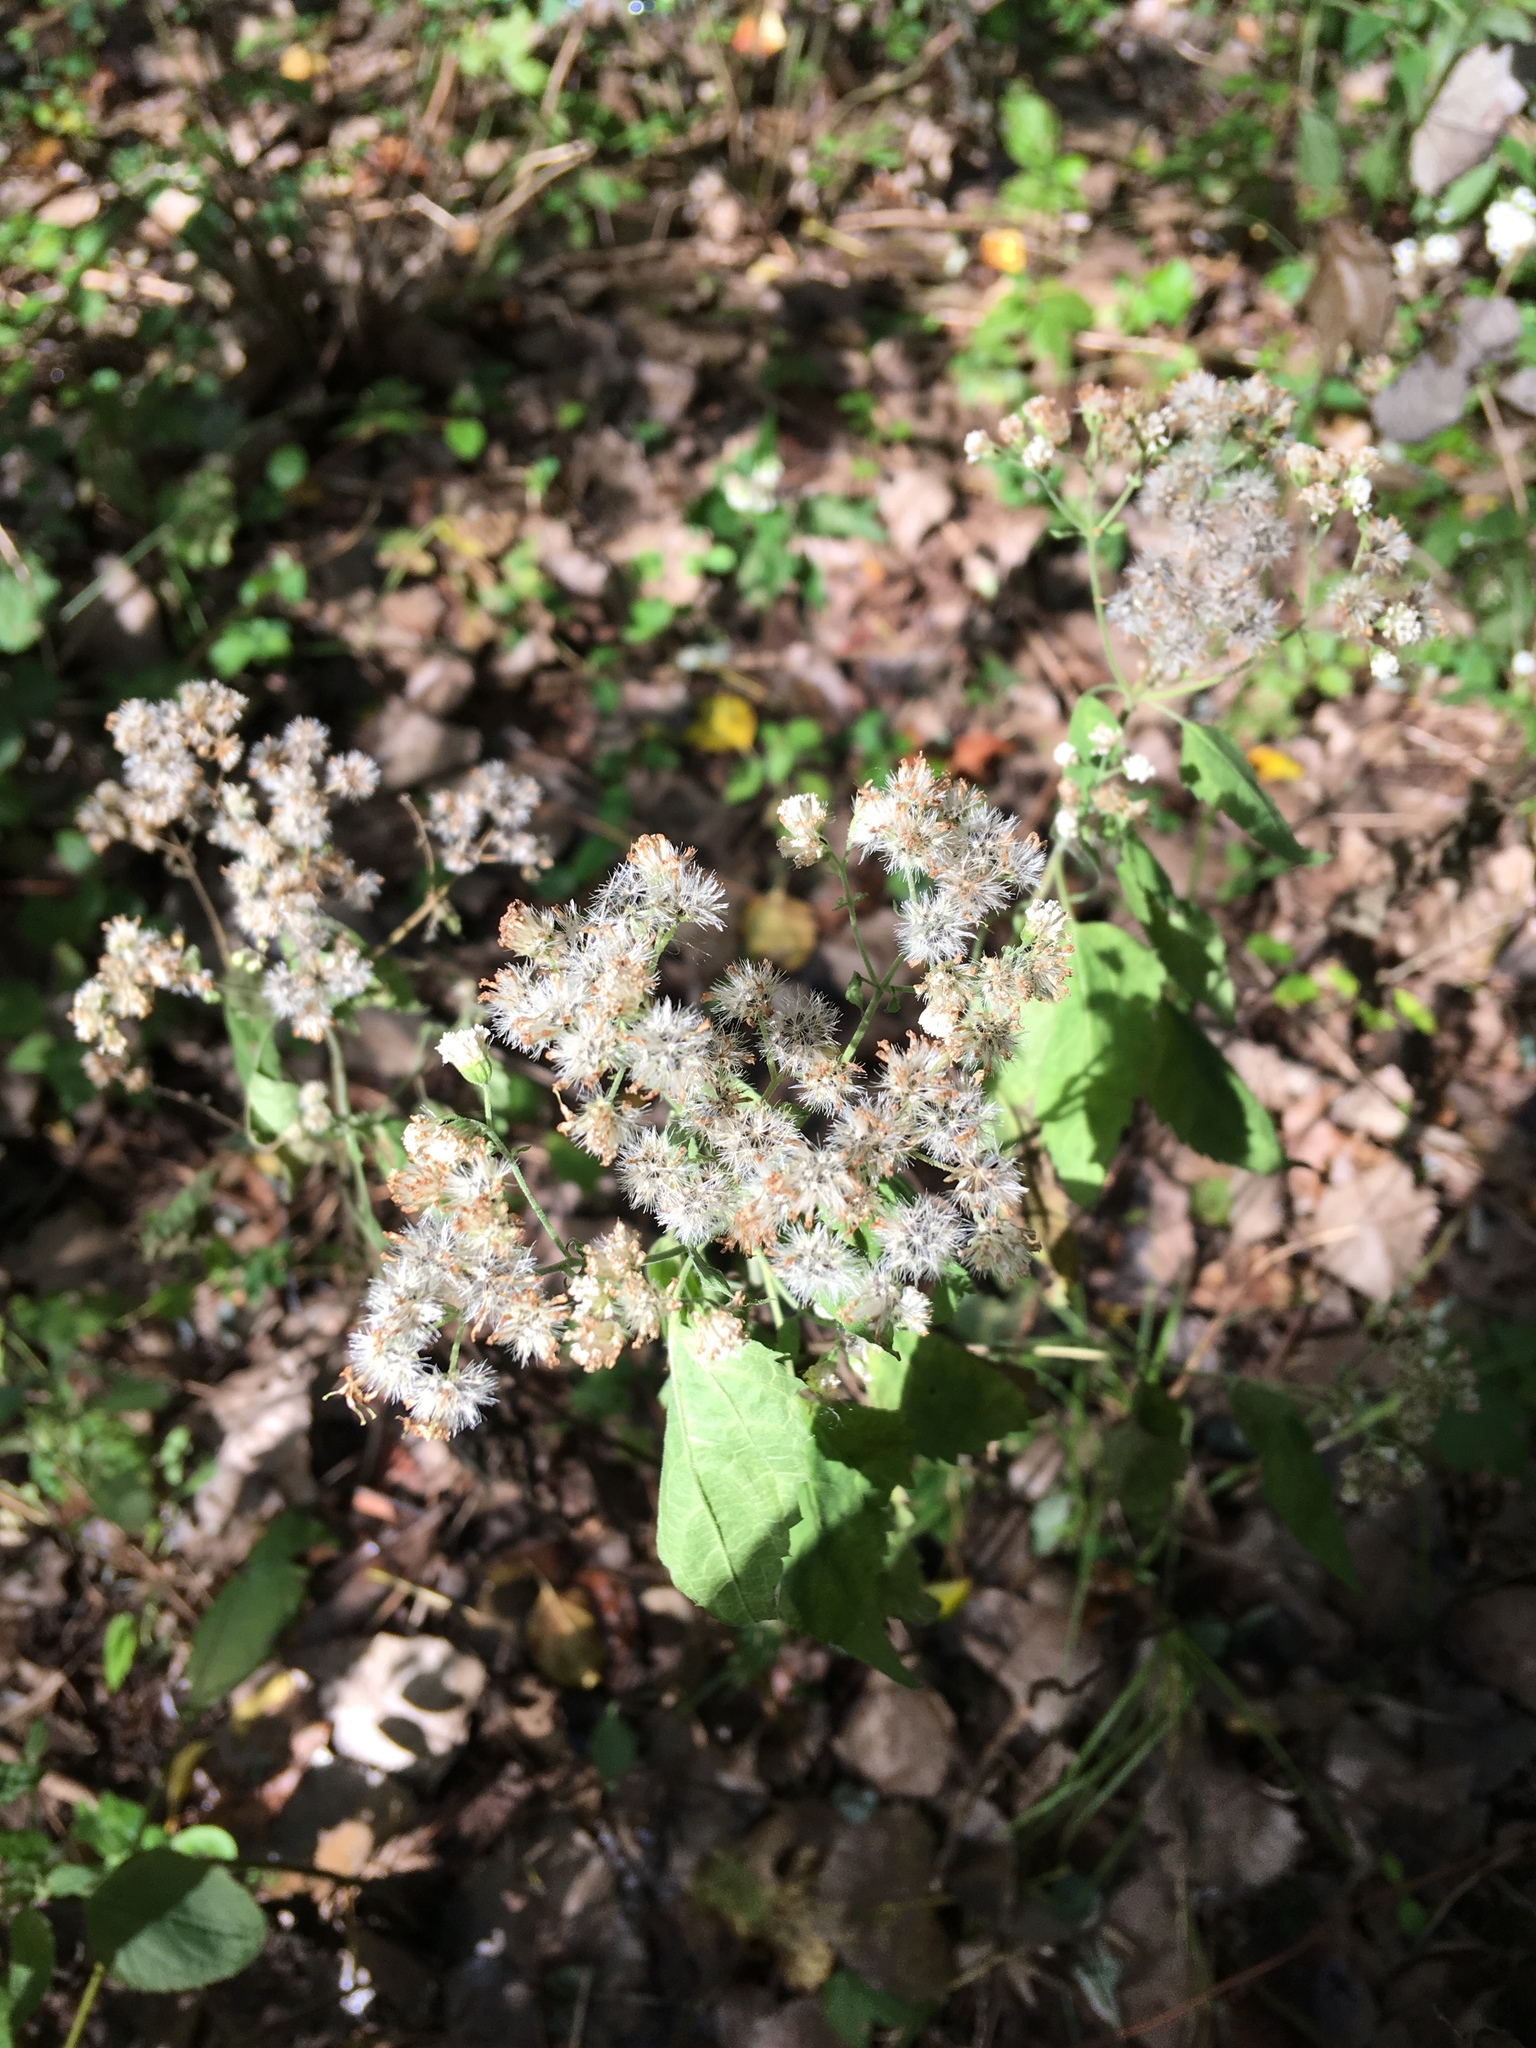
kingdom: Plantae
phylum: Tracheophyta
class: Magnoliopsida
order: Asterales
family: Asteraceae
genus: Ageratina
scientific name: Ageratina altissima
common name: White snakeroot
